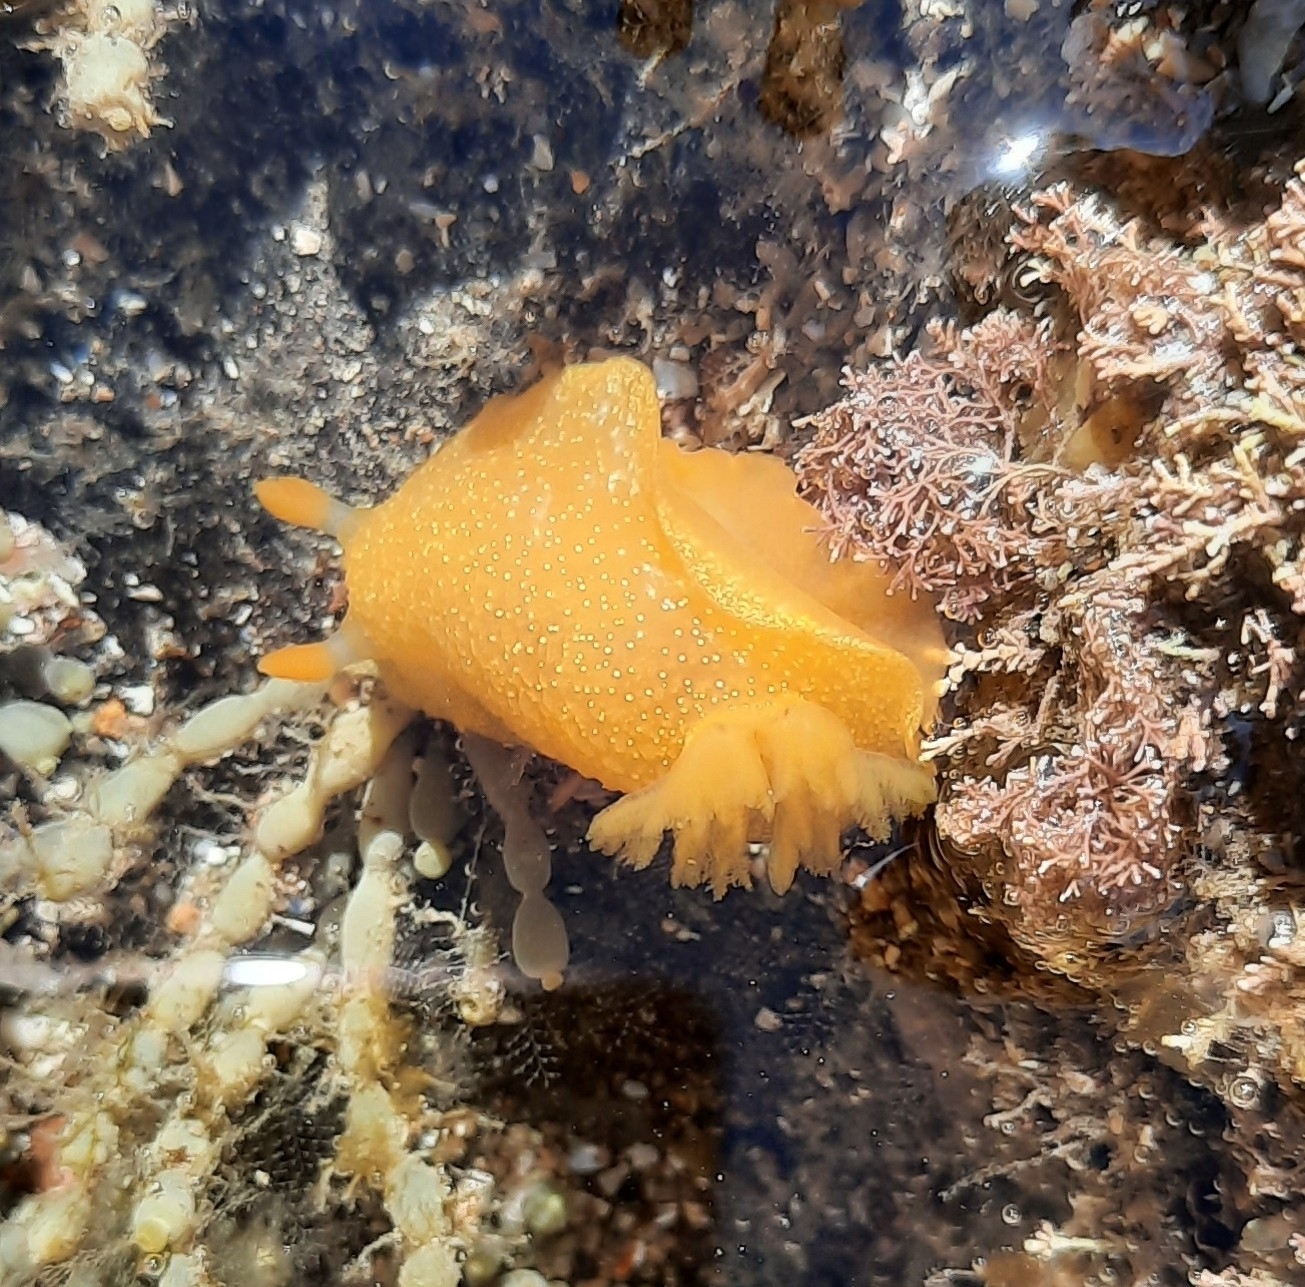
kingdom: Animalia
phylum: Mollusca
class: Gastropoda
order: Nudibranchia
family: Dendrodorididae
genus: Dendrodoris
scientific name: Dendrodoris citrina
